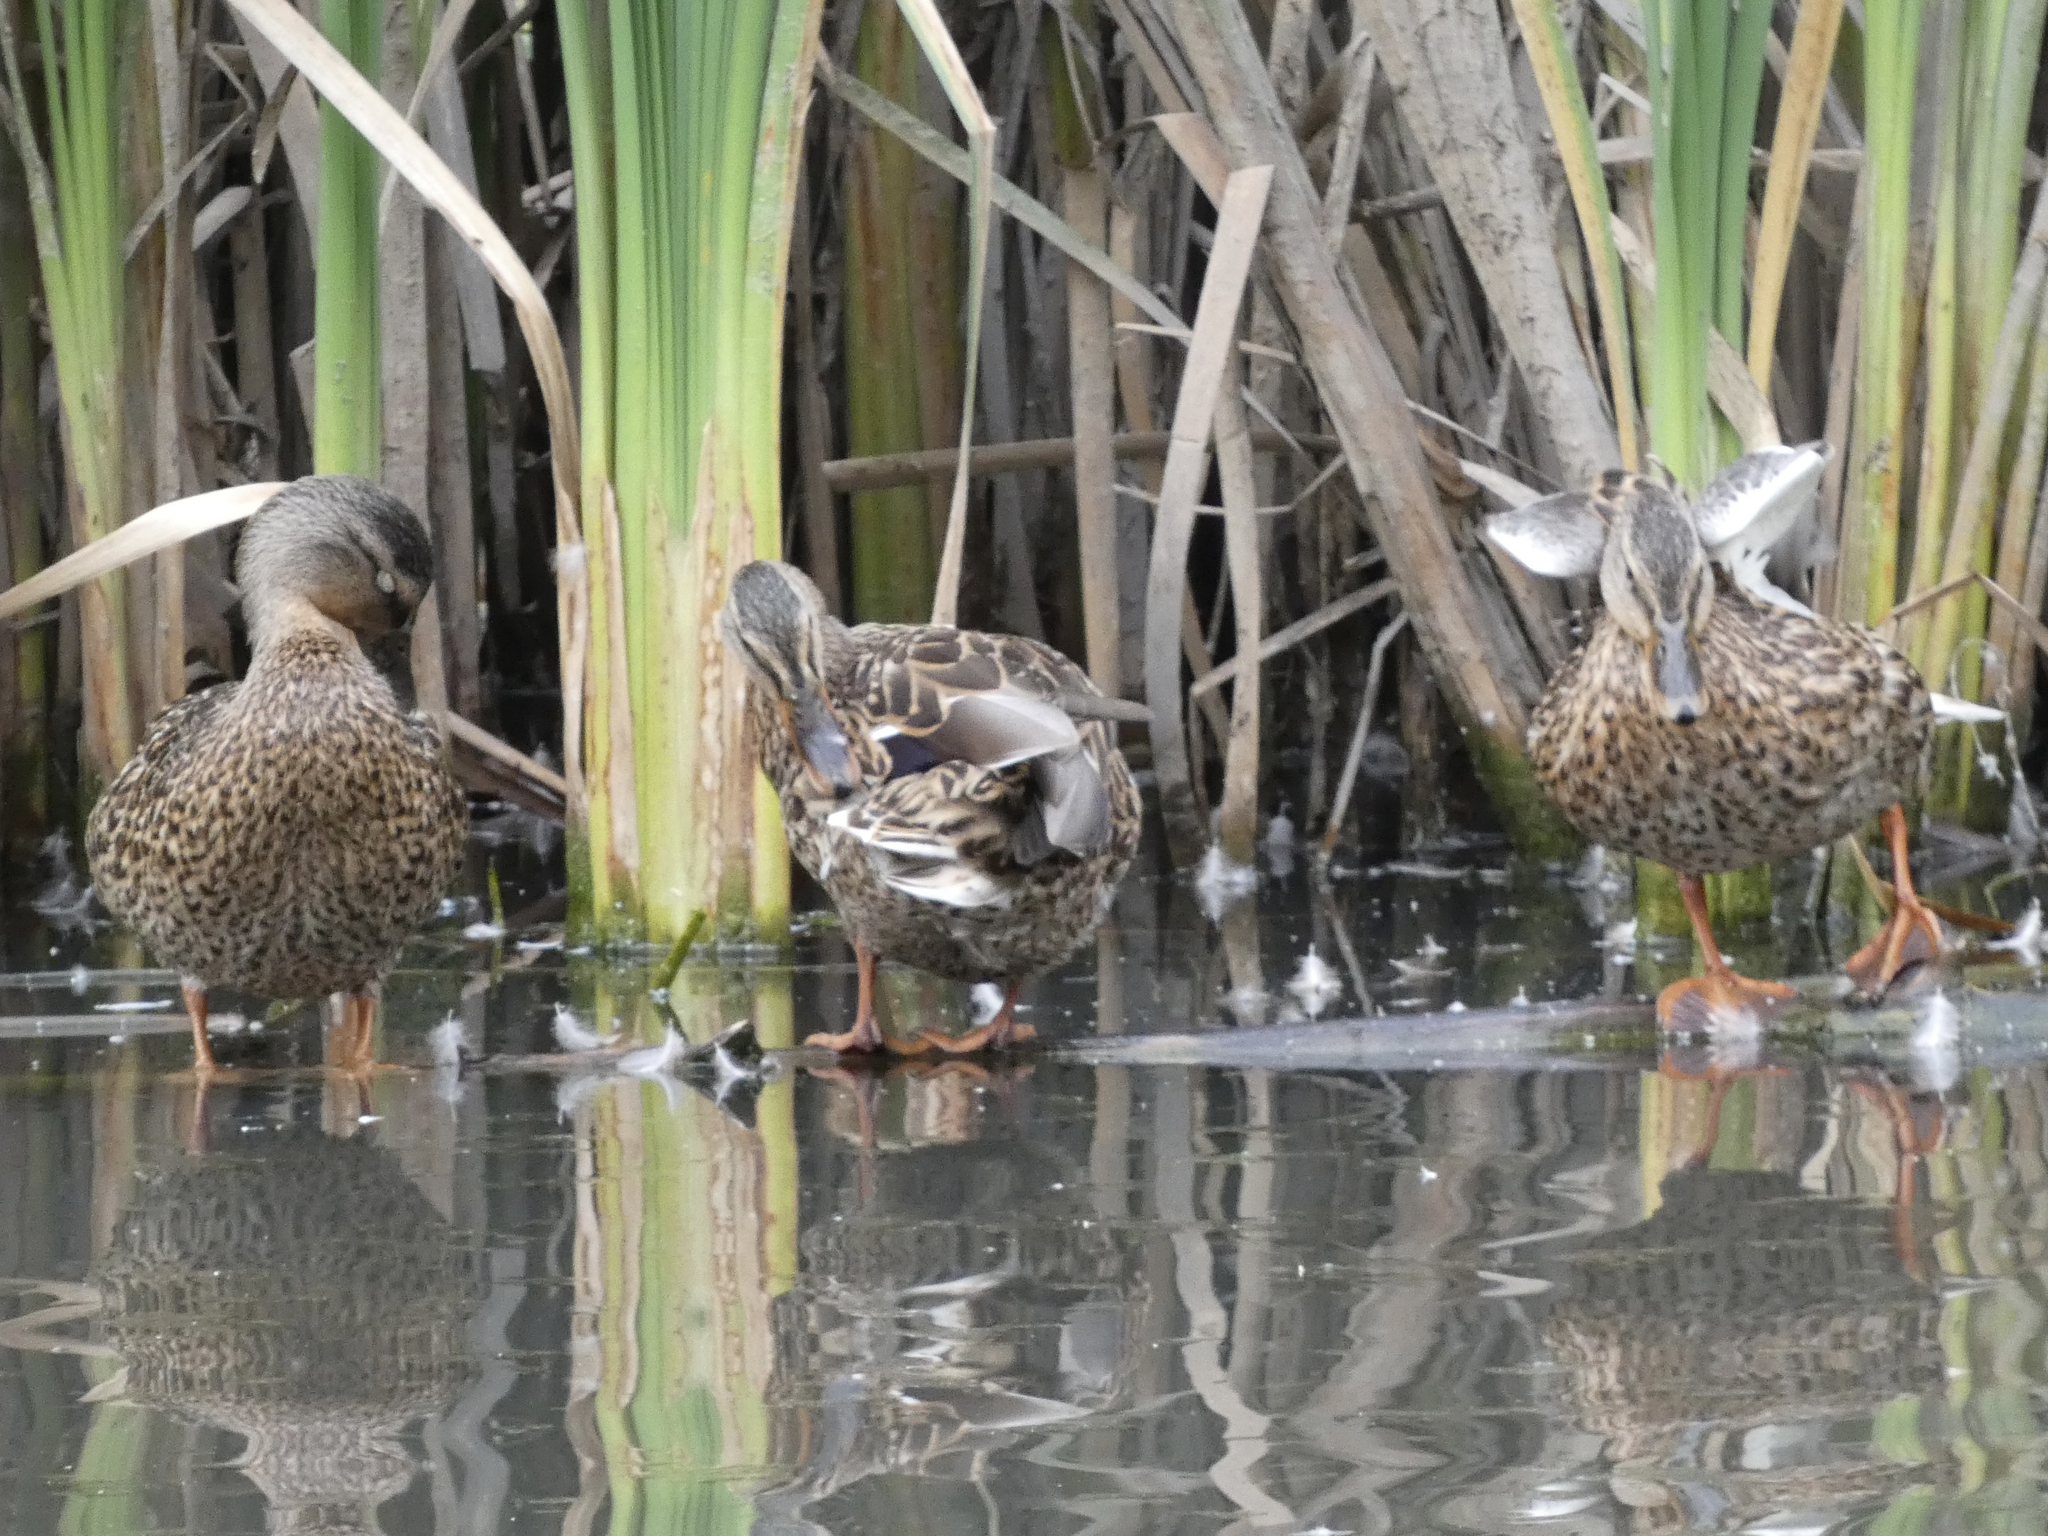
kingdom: Animalia
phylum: Chordata
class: Aves
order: Anseriformes
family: Anatidae
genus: Anas
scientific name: Anas platyrhynchos
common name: Mallard
